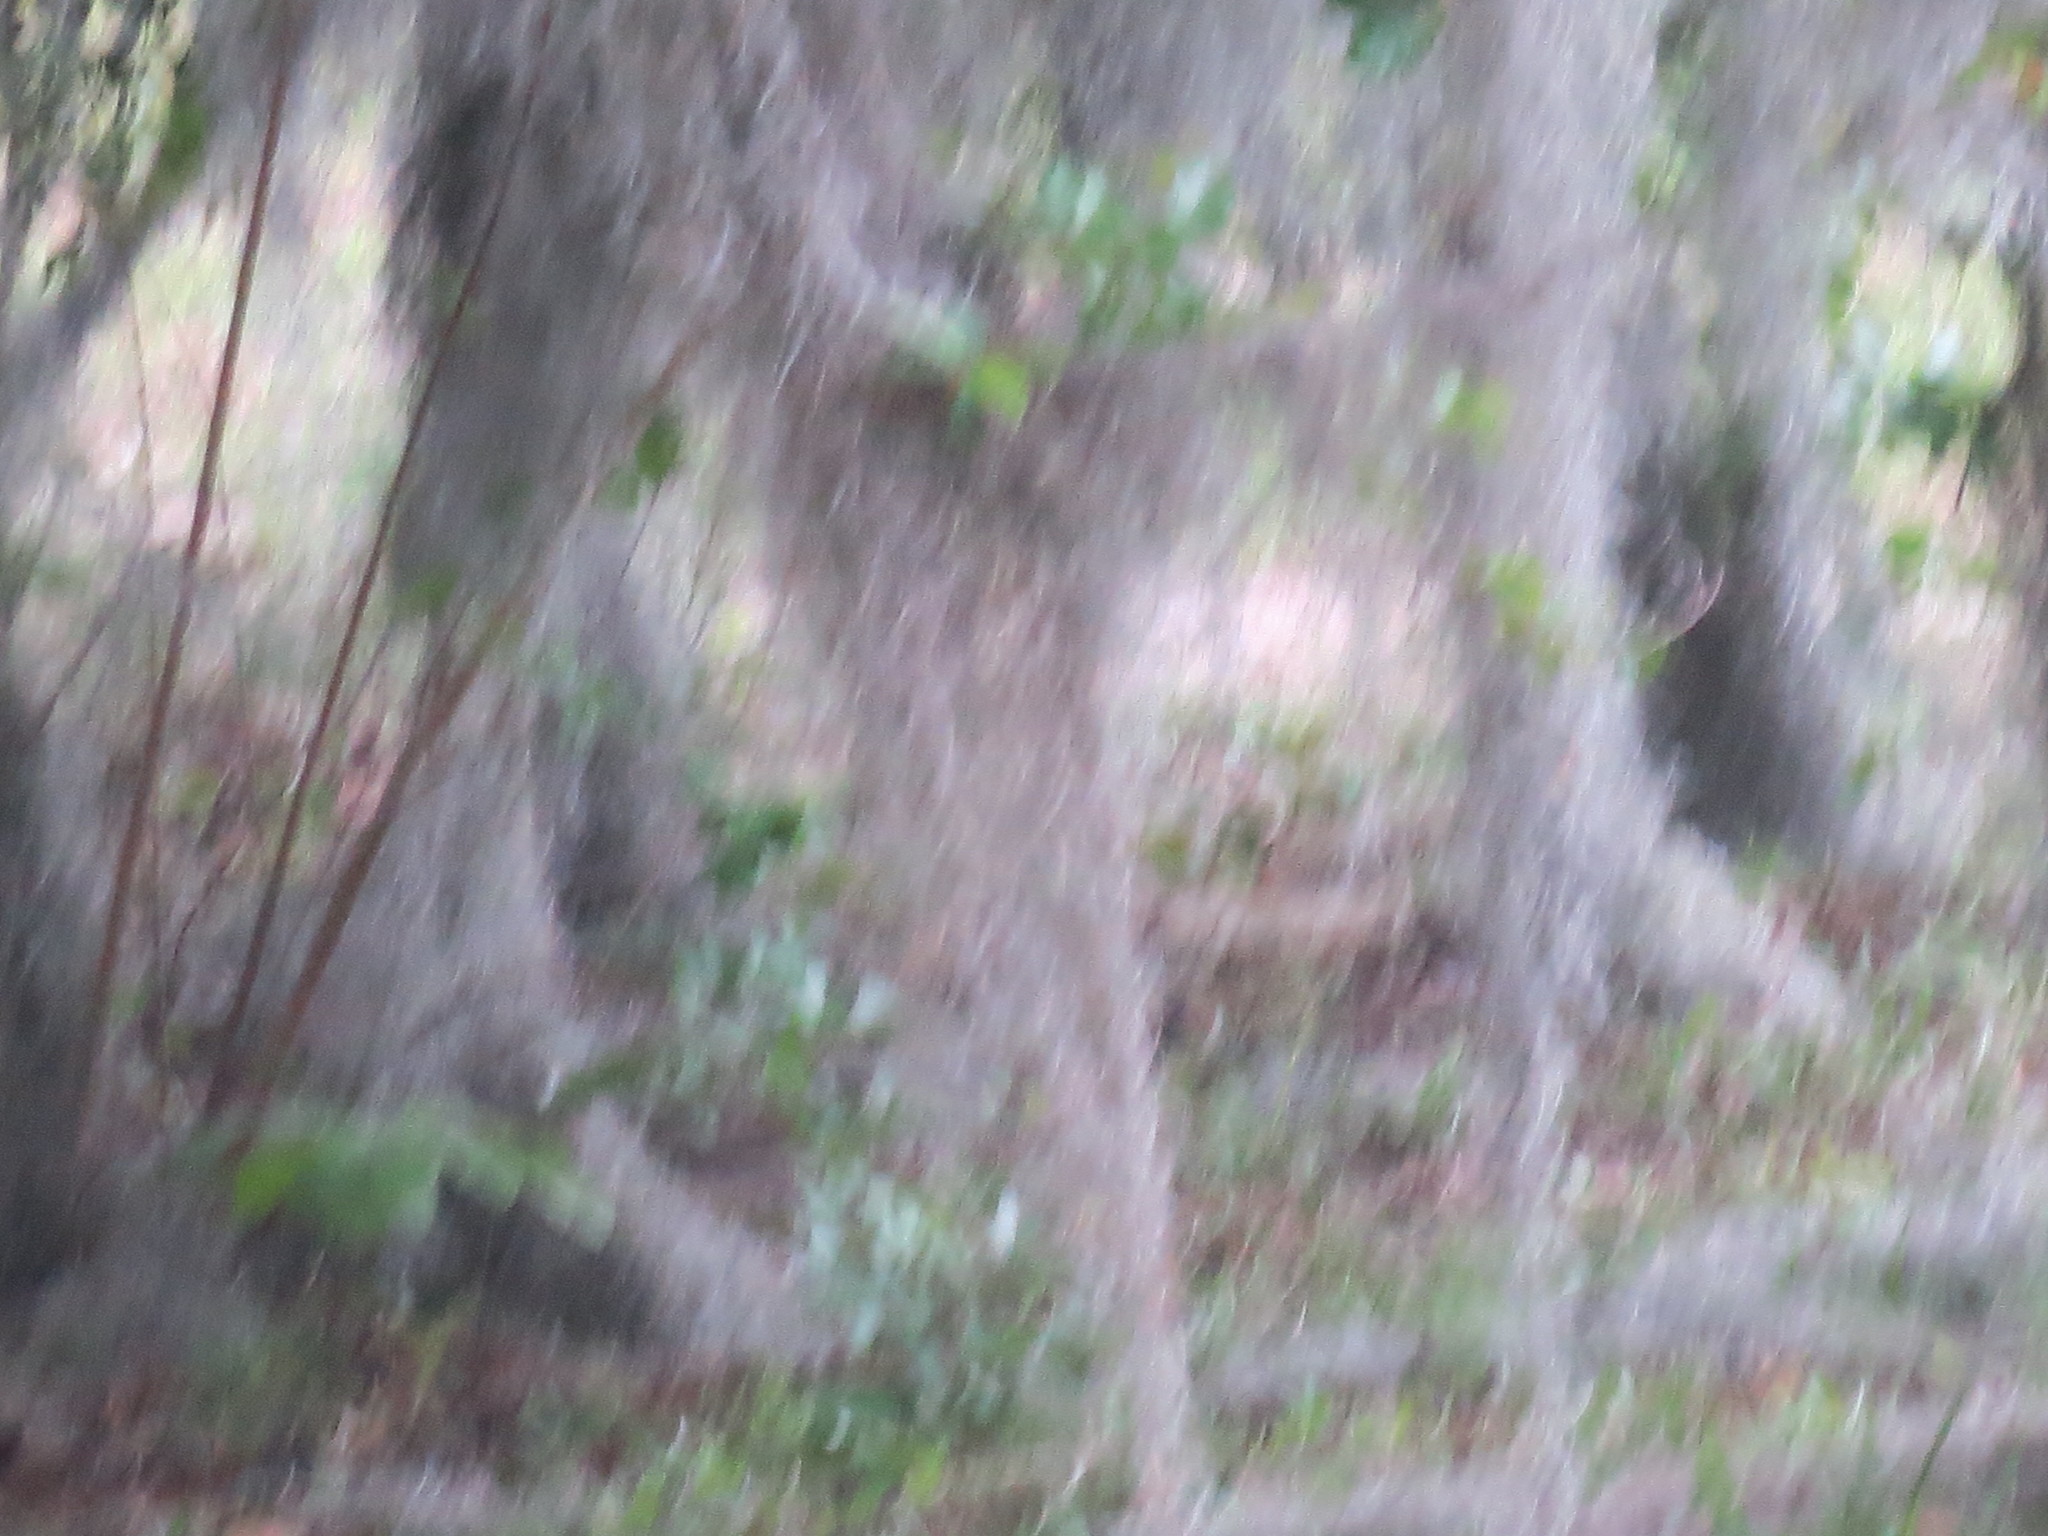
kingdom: Plantae
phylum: Tracheophyta
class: Liliopsida
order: Poales
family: Bromeliaceae
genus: Tillandsia
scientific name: Tillandsia usneoides
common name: Spanish moss
